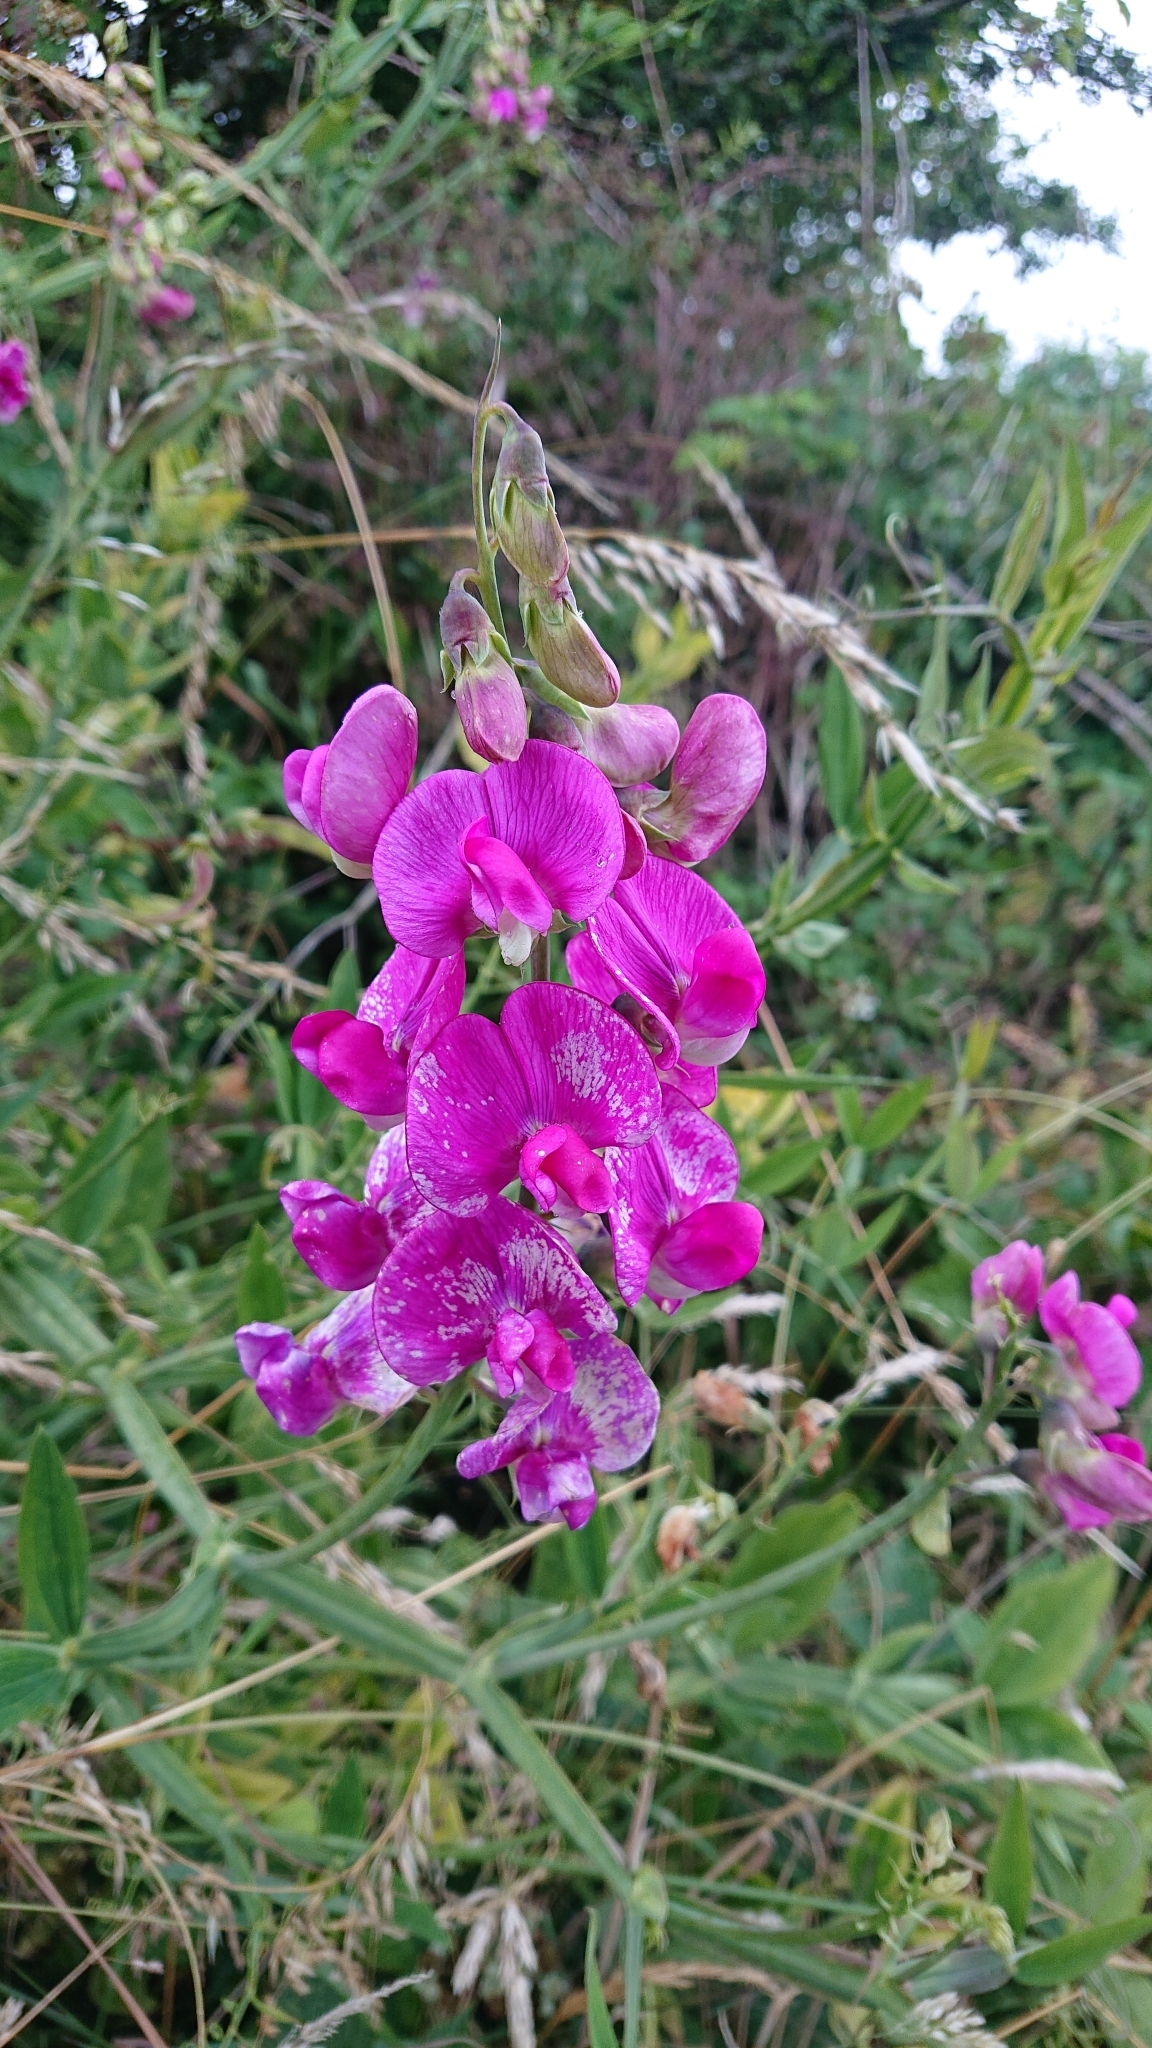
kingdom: Plantae
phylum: Tracheophyta
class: Magnoliopsida
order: Fabales
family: Fabaceae
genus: Lathyrus
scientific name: Lathyrus latifolius
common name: Perennial pea
